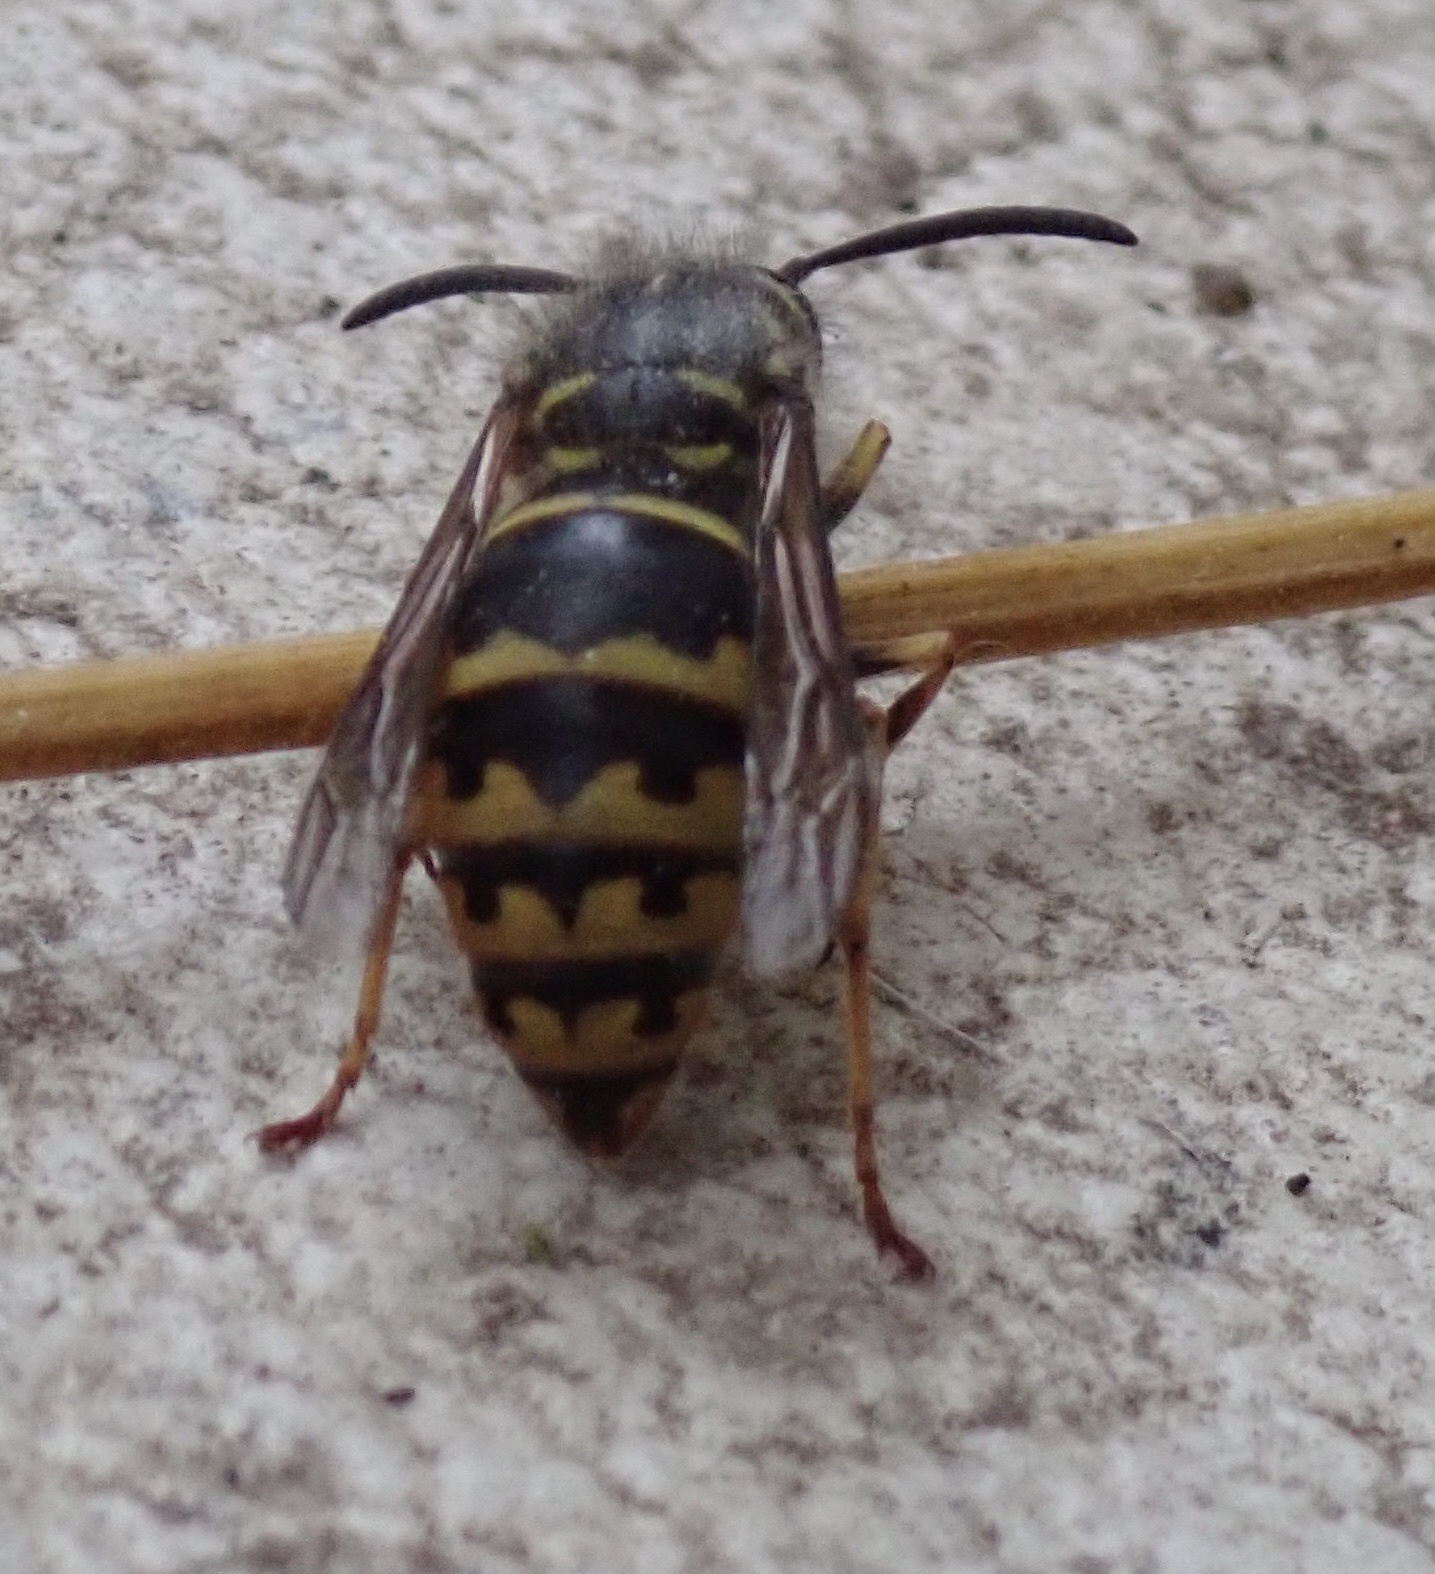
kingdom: Animalia
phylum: Arthropoda
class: Insecta
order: Hymenoptera
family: Vespidae
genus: Vespula
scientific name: Vespula alascensis
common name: Alaska yellowjacket
